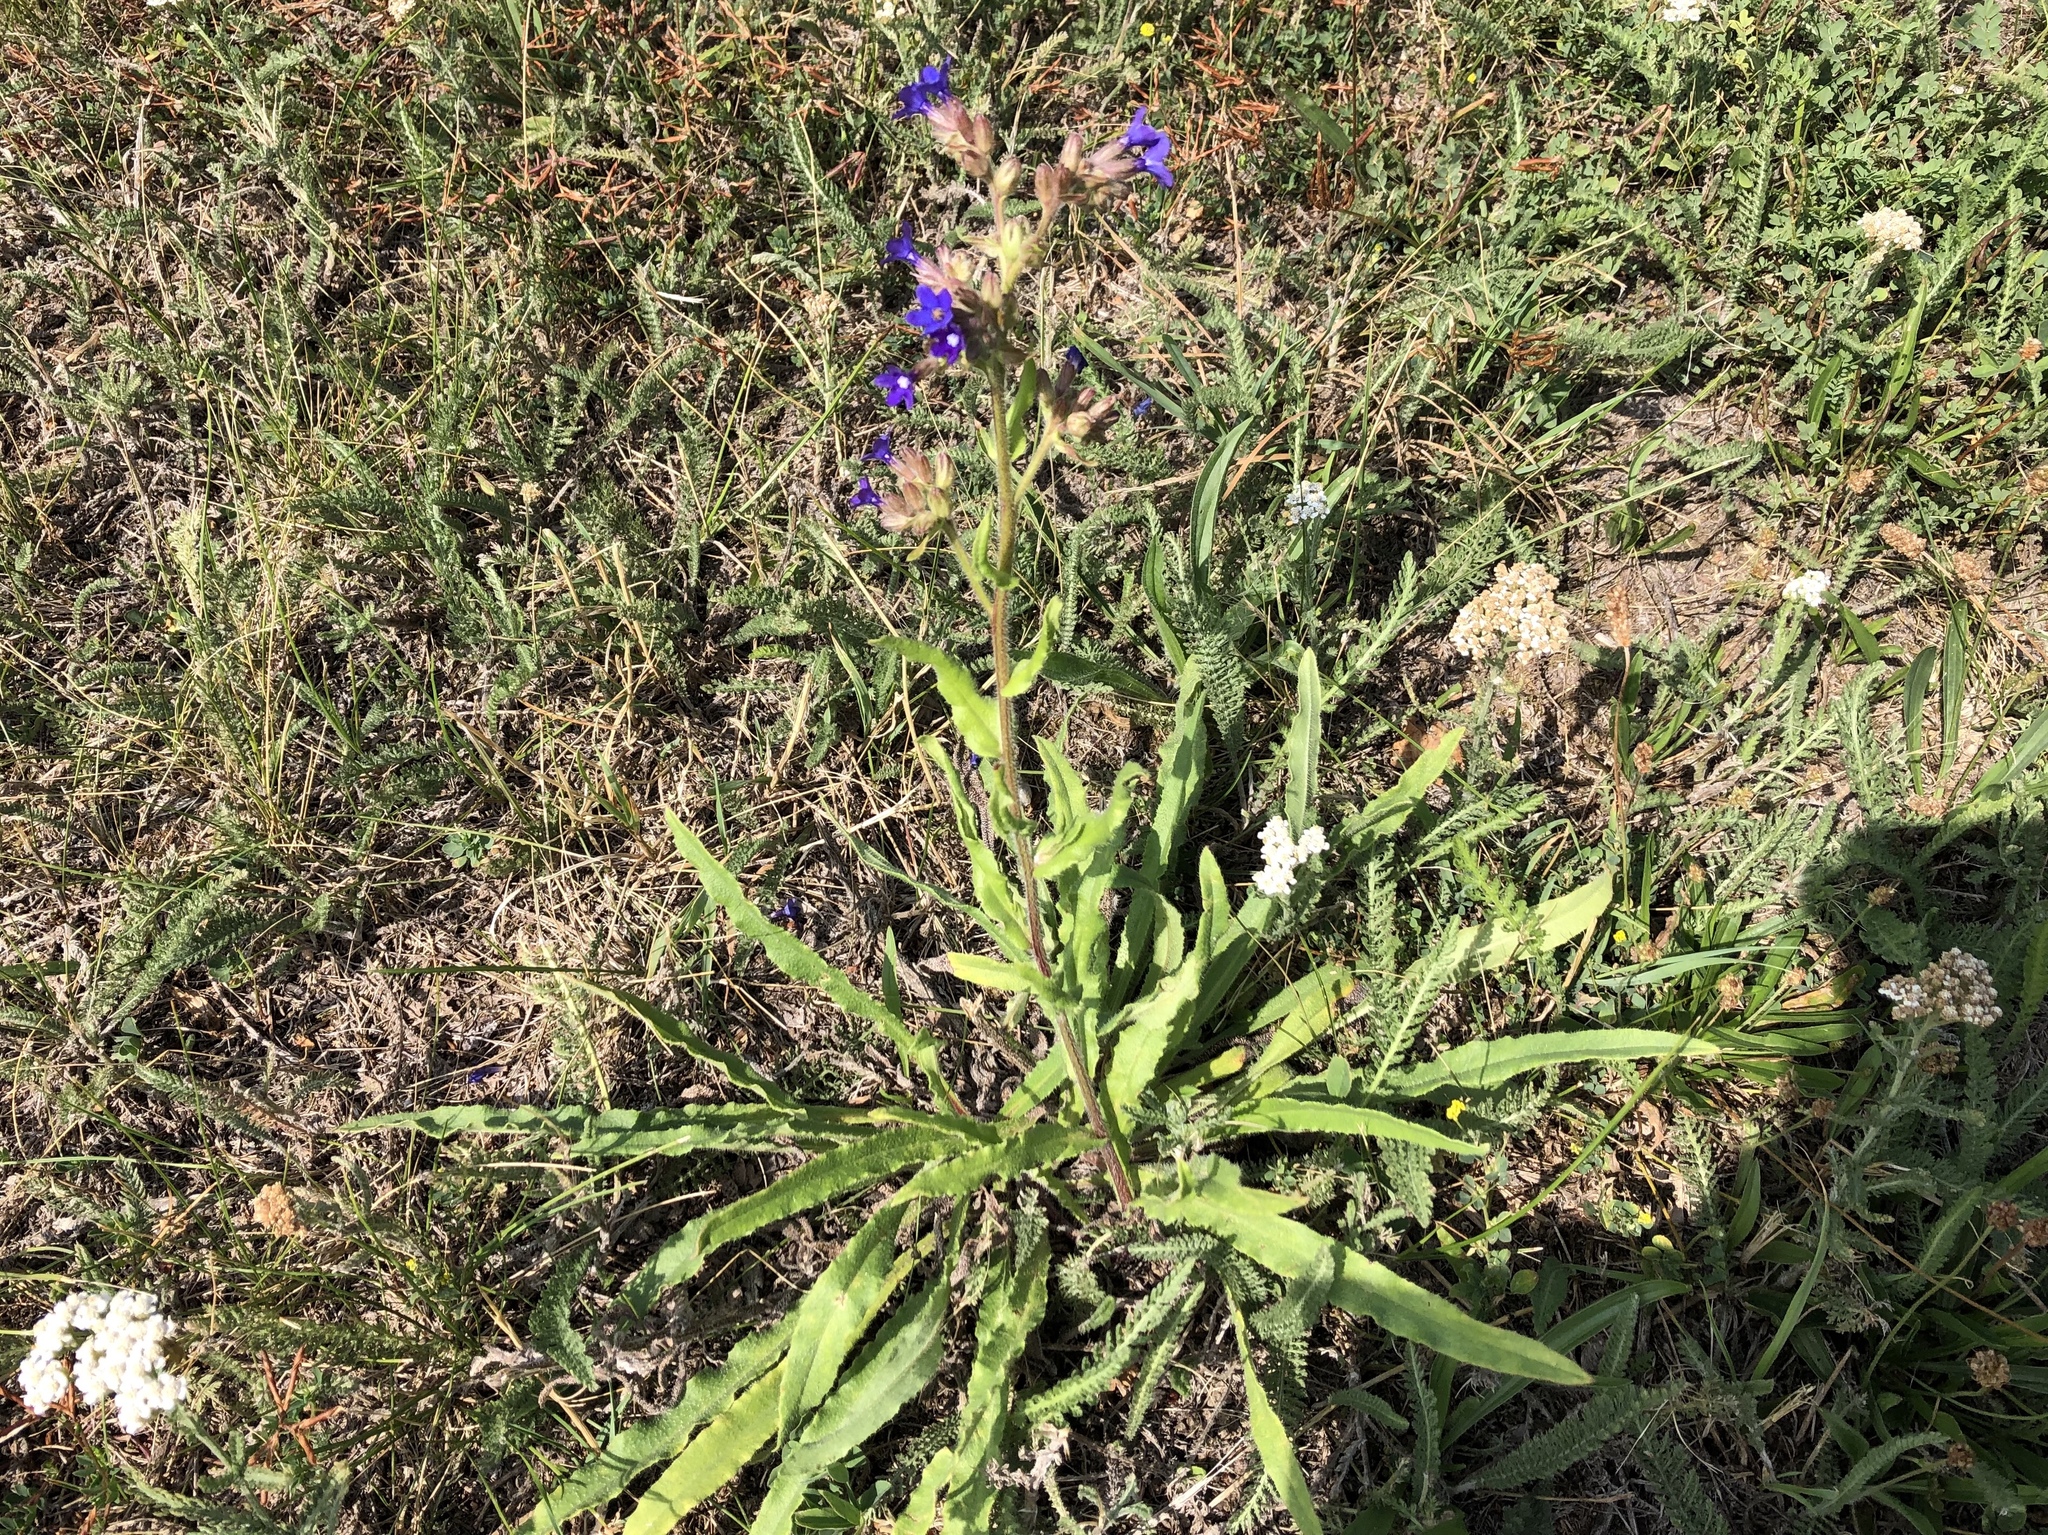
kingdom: Plantae
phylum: Tracheophyta
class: Magnoliopsida
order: Boraginales
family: Boraginaceae
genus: Anchusa
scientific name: Anchusa officinalis
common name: Alkanet
